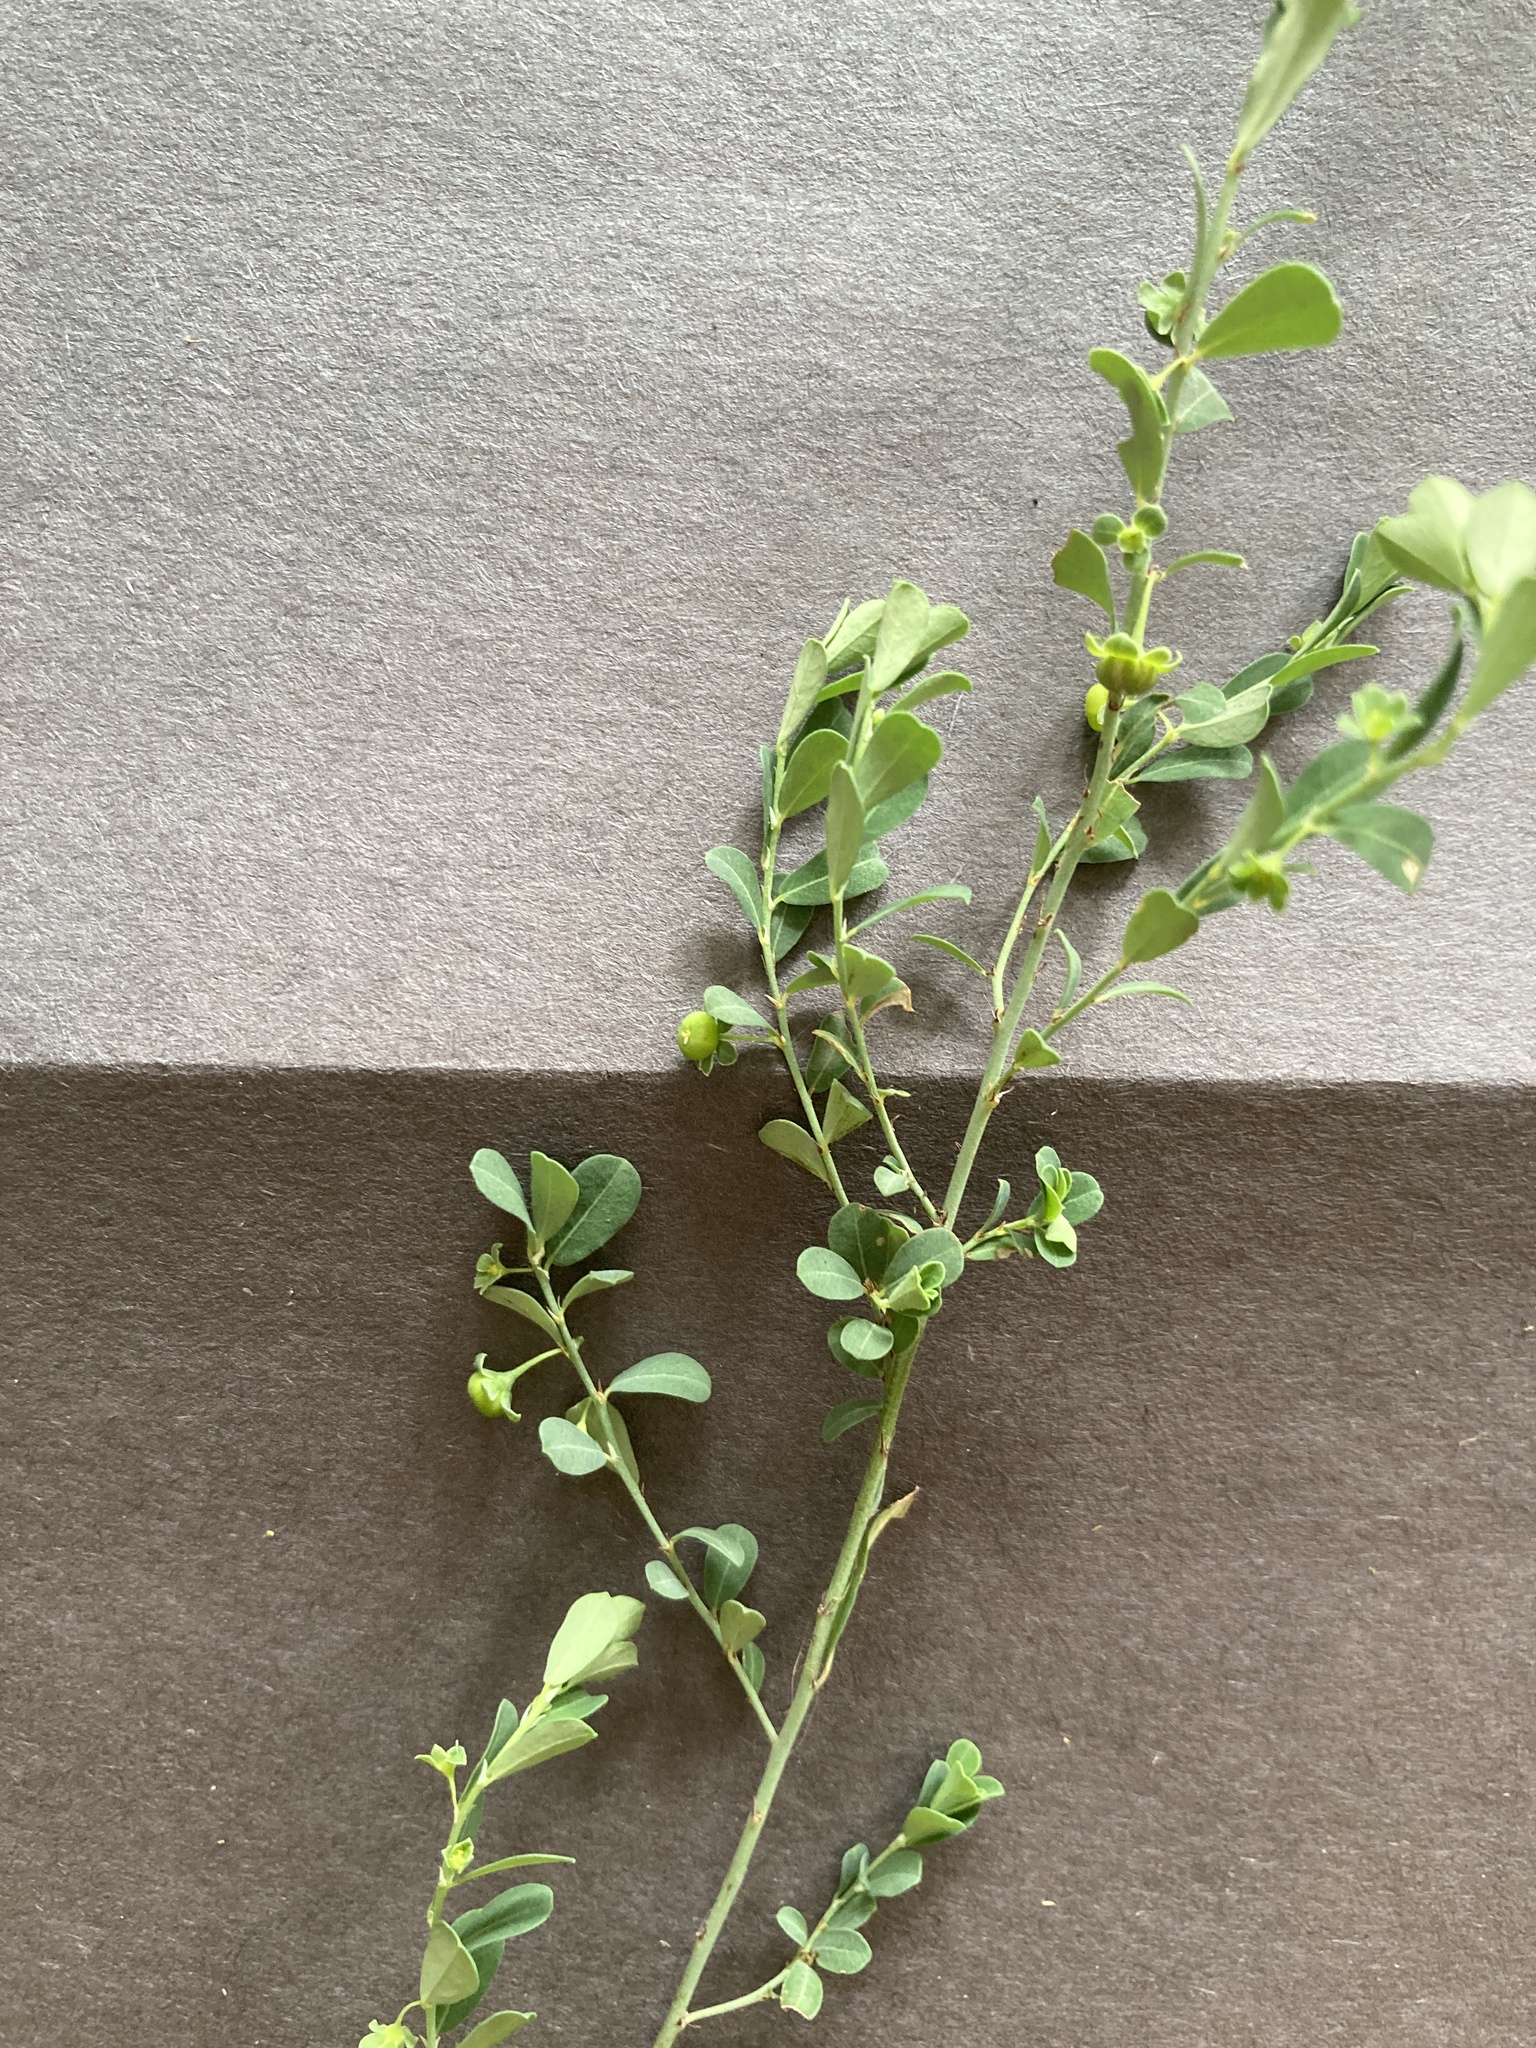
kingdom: Plantae
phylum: Tracheophyta
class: Magnoliopsida
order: Malpighiales
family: Phyllanthaceae
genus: Phyllanthus
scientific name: Phyllanthus polygonoides
